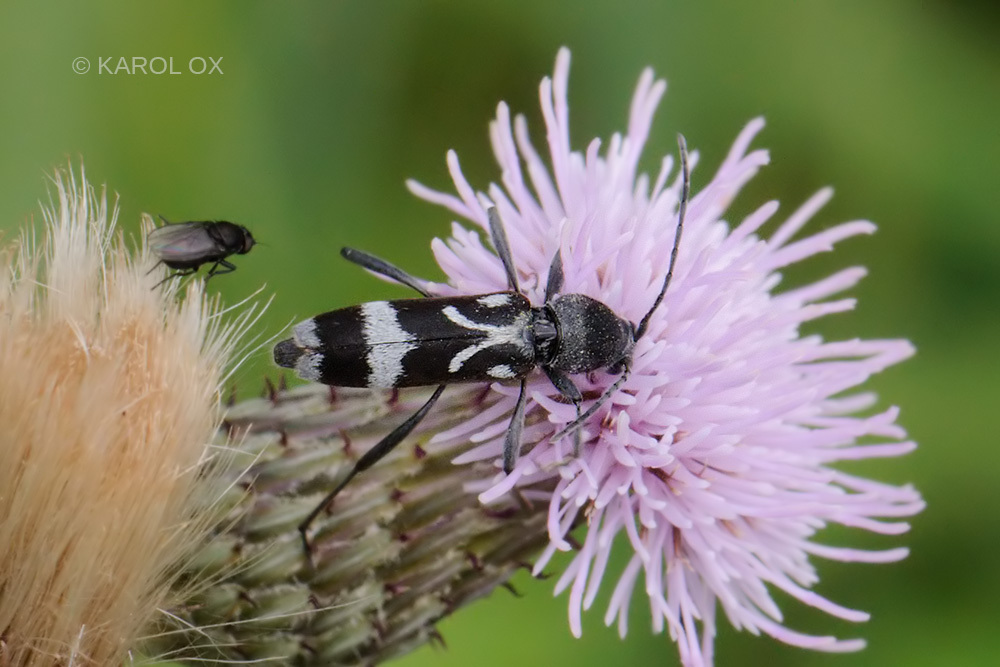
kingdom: Animalia
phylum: Arthropoda
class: Insecta
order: Coleoptera
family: Cerambycidae
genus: Chlorophorus
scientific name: Chlorophorus figuratus
